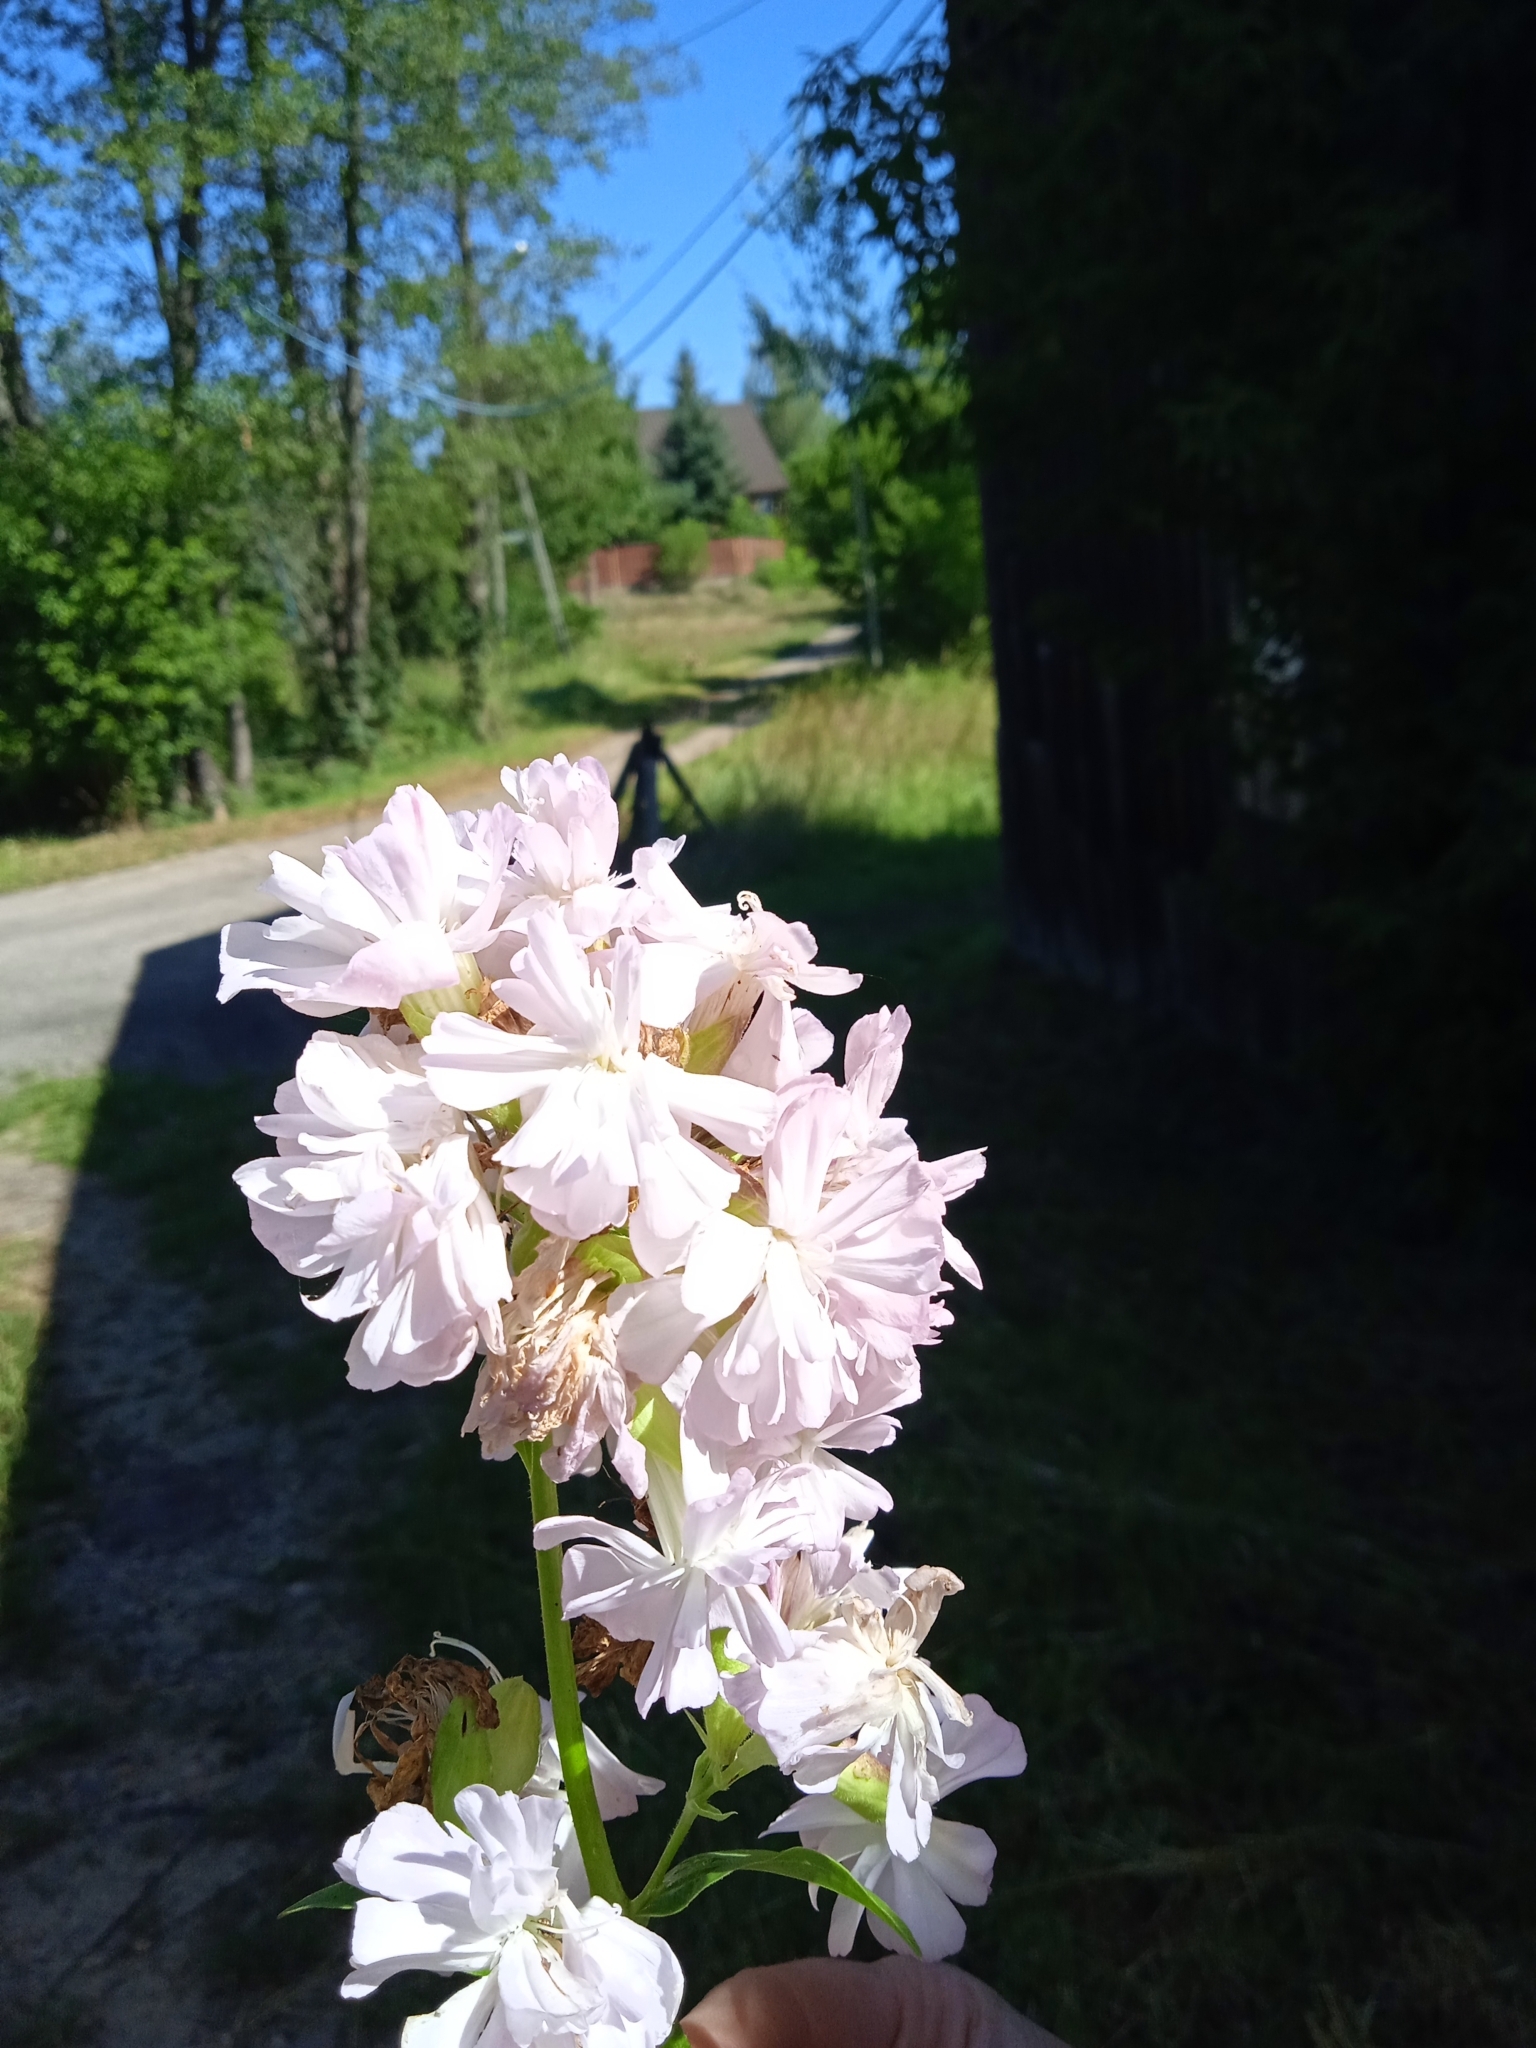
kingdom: Plantae
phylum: Tracheophyta
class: Magnoliopsida
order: Caryophyllales
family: Caryophyllaceae
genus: Saponaria
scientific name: Saponaria officinalis
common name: Soapwort
